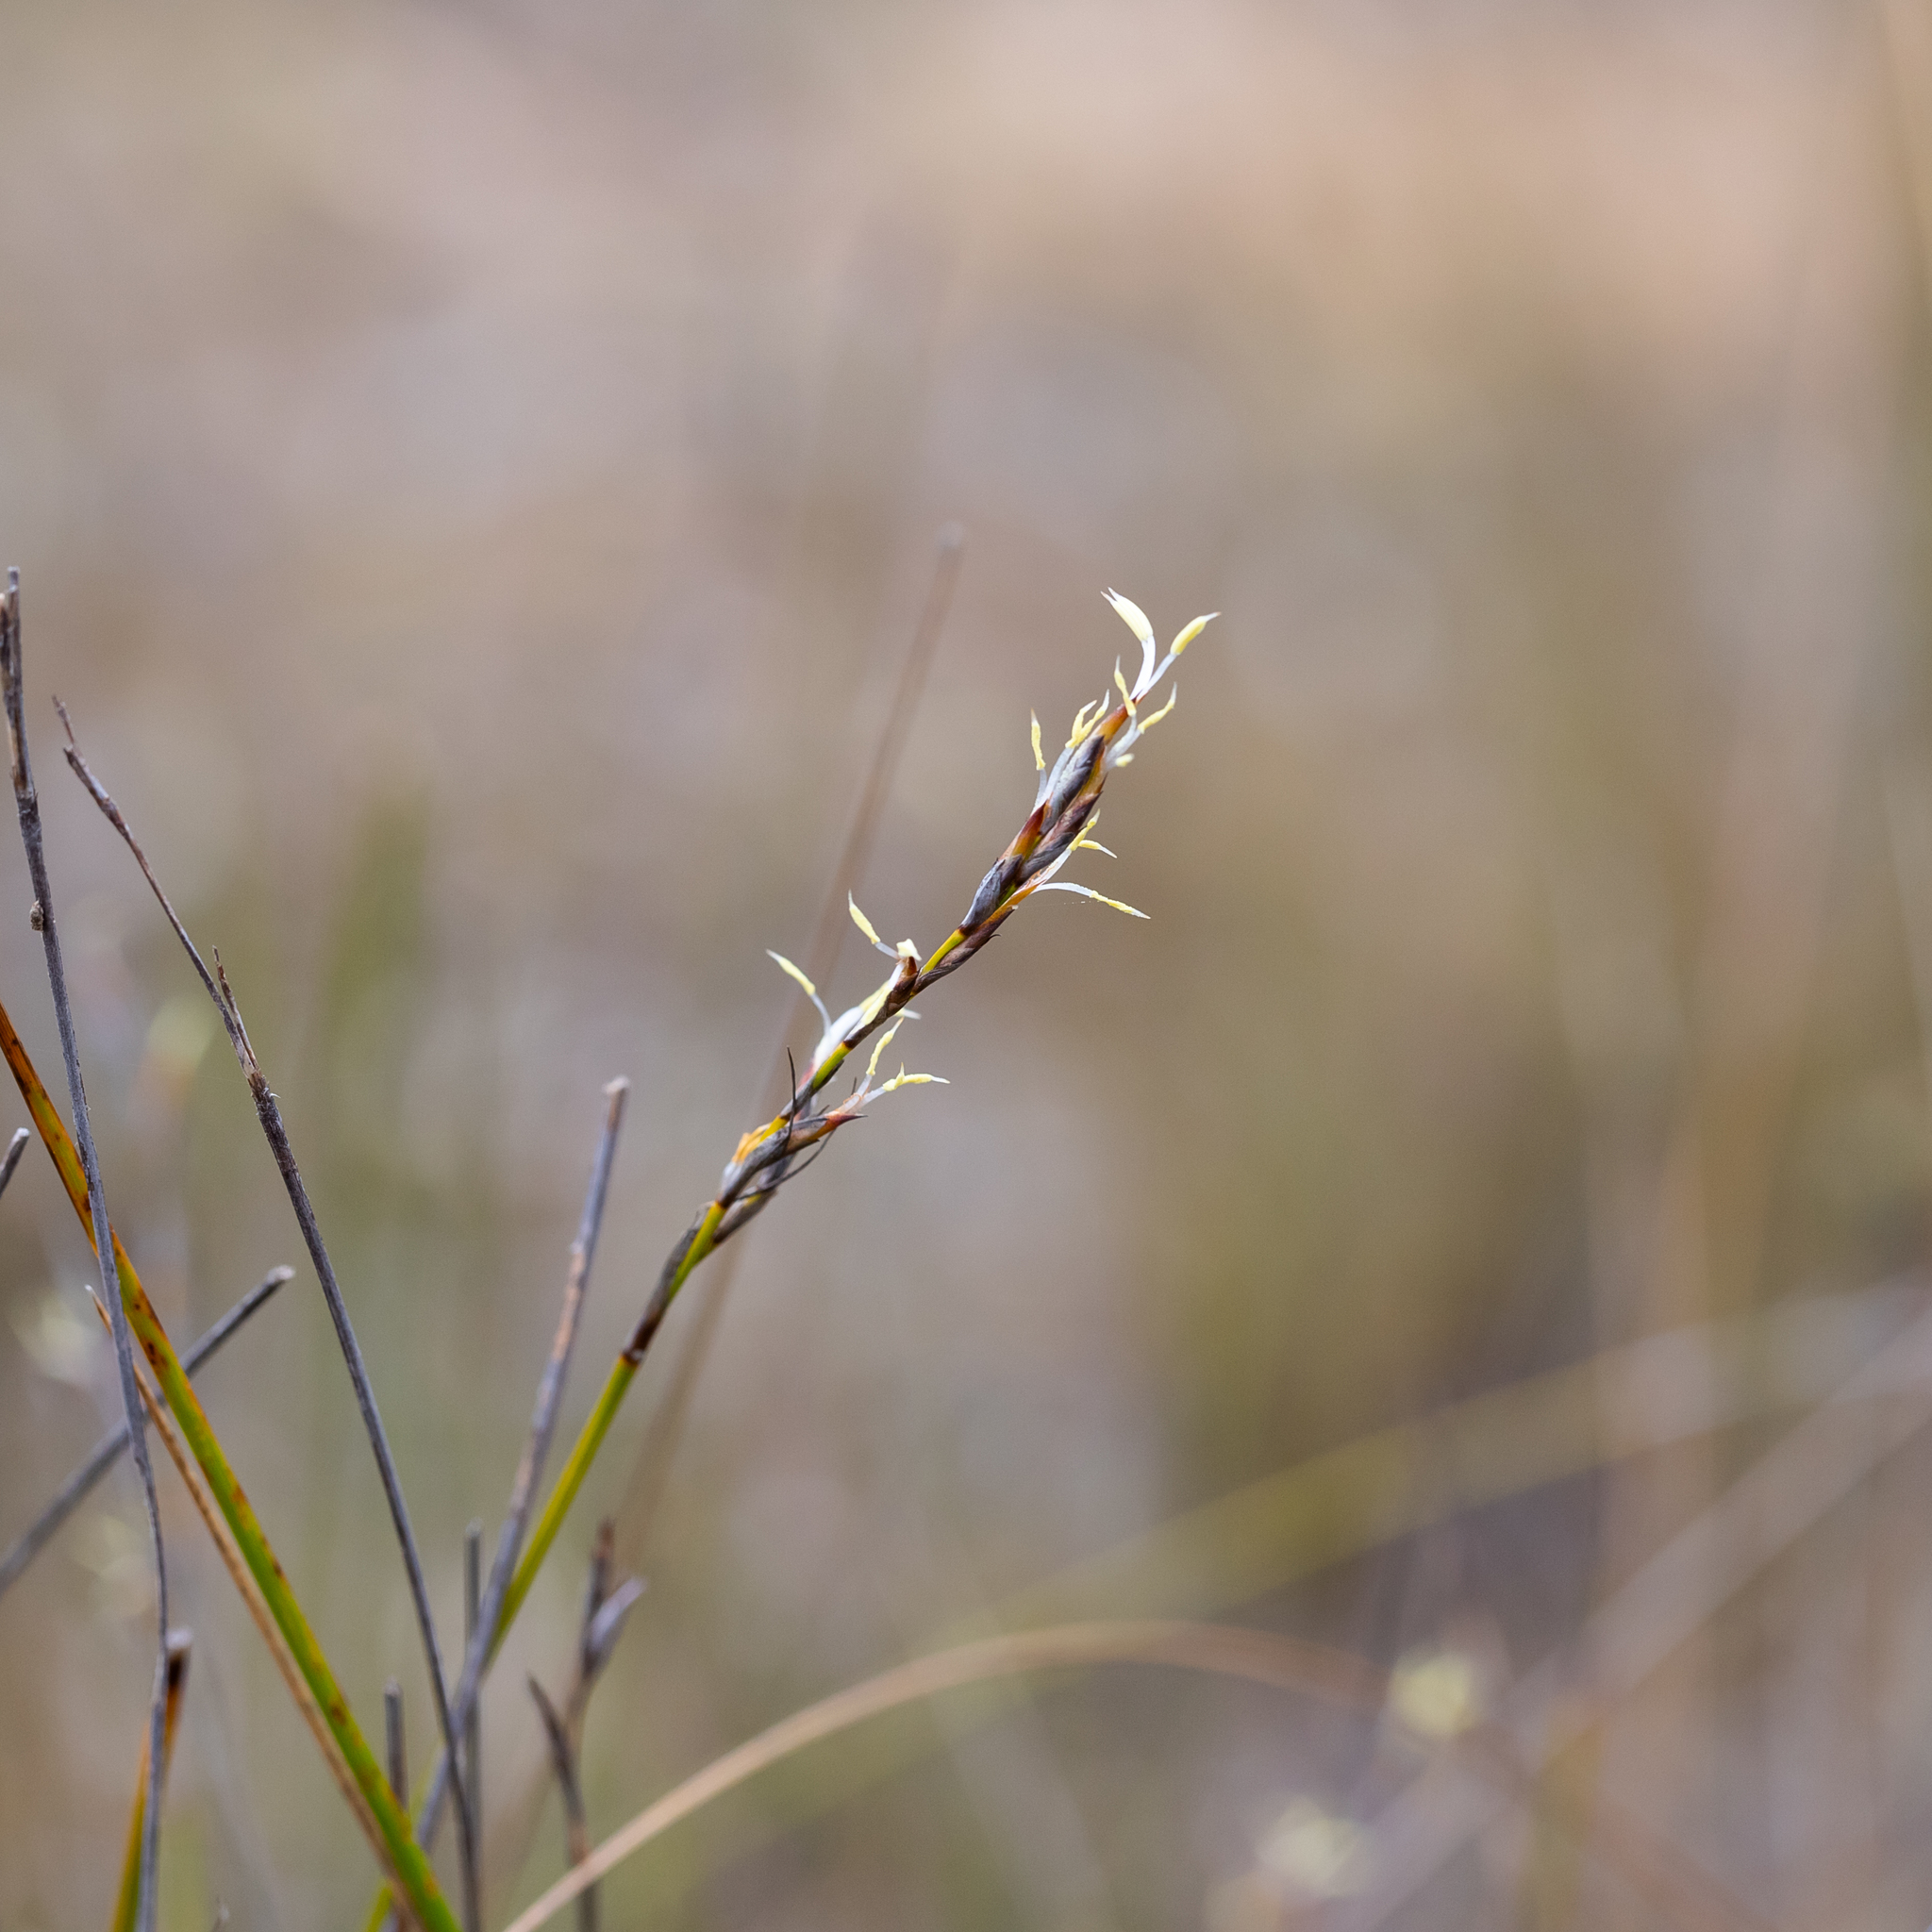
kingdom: Plantae
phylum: Tracheophyta
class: Liliopsida
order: Poales
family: Cyperaceae
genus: Lepidosperma
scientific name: Lepidosperma semiteres
